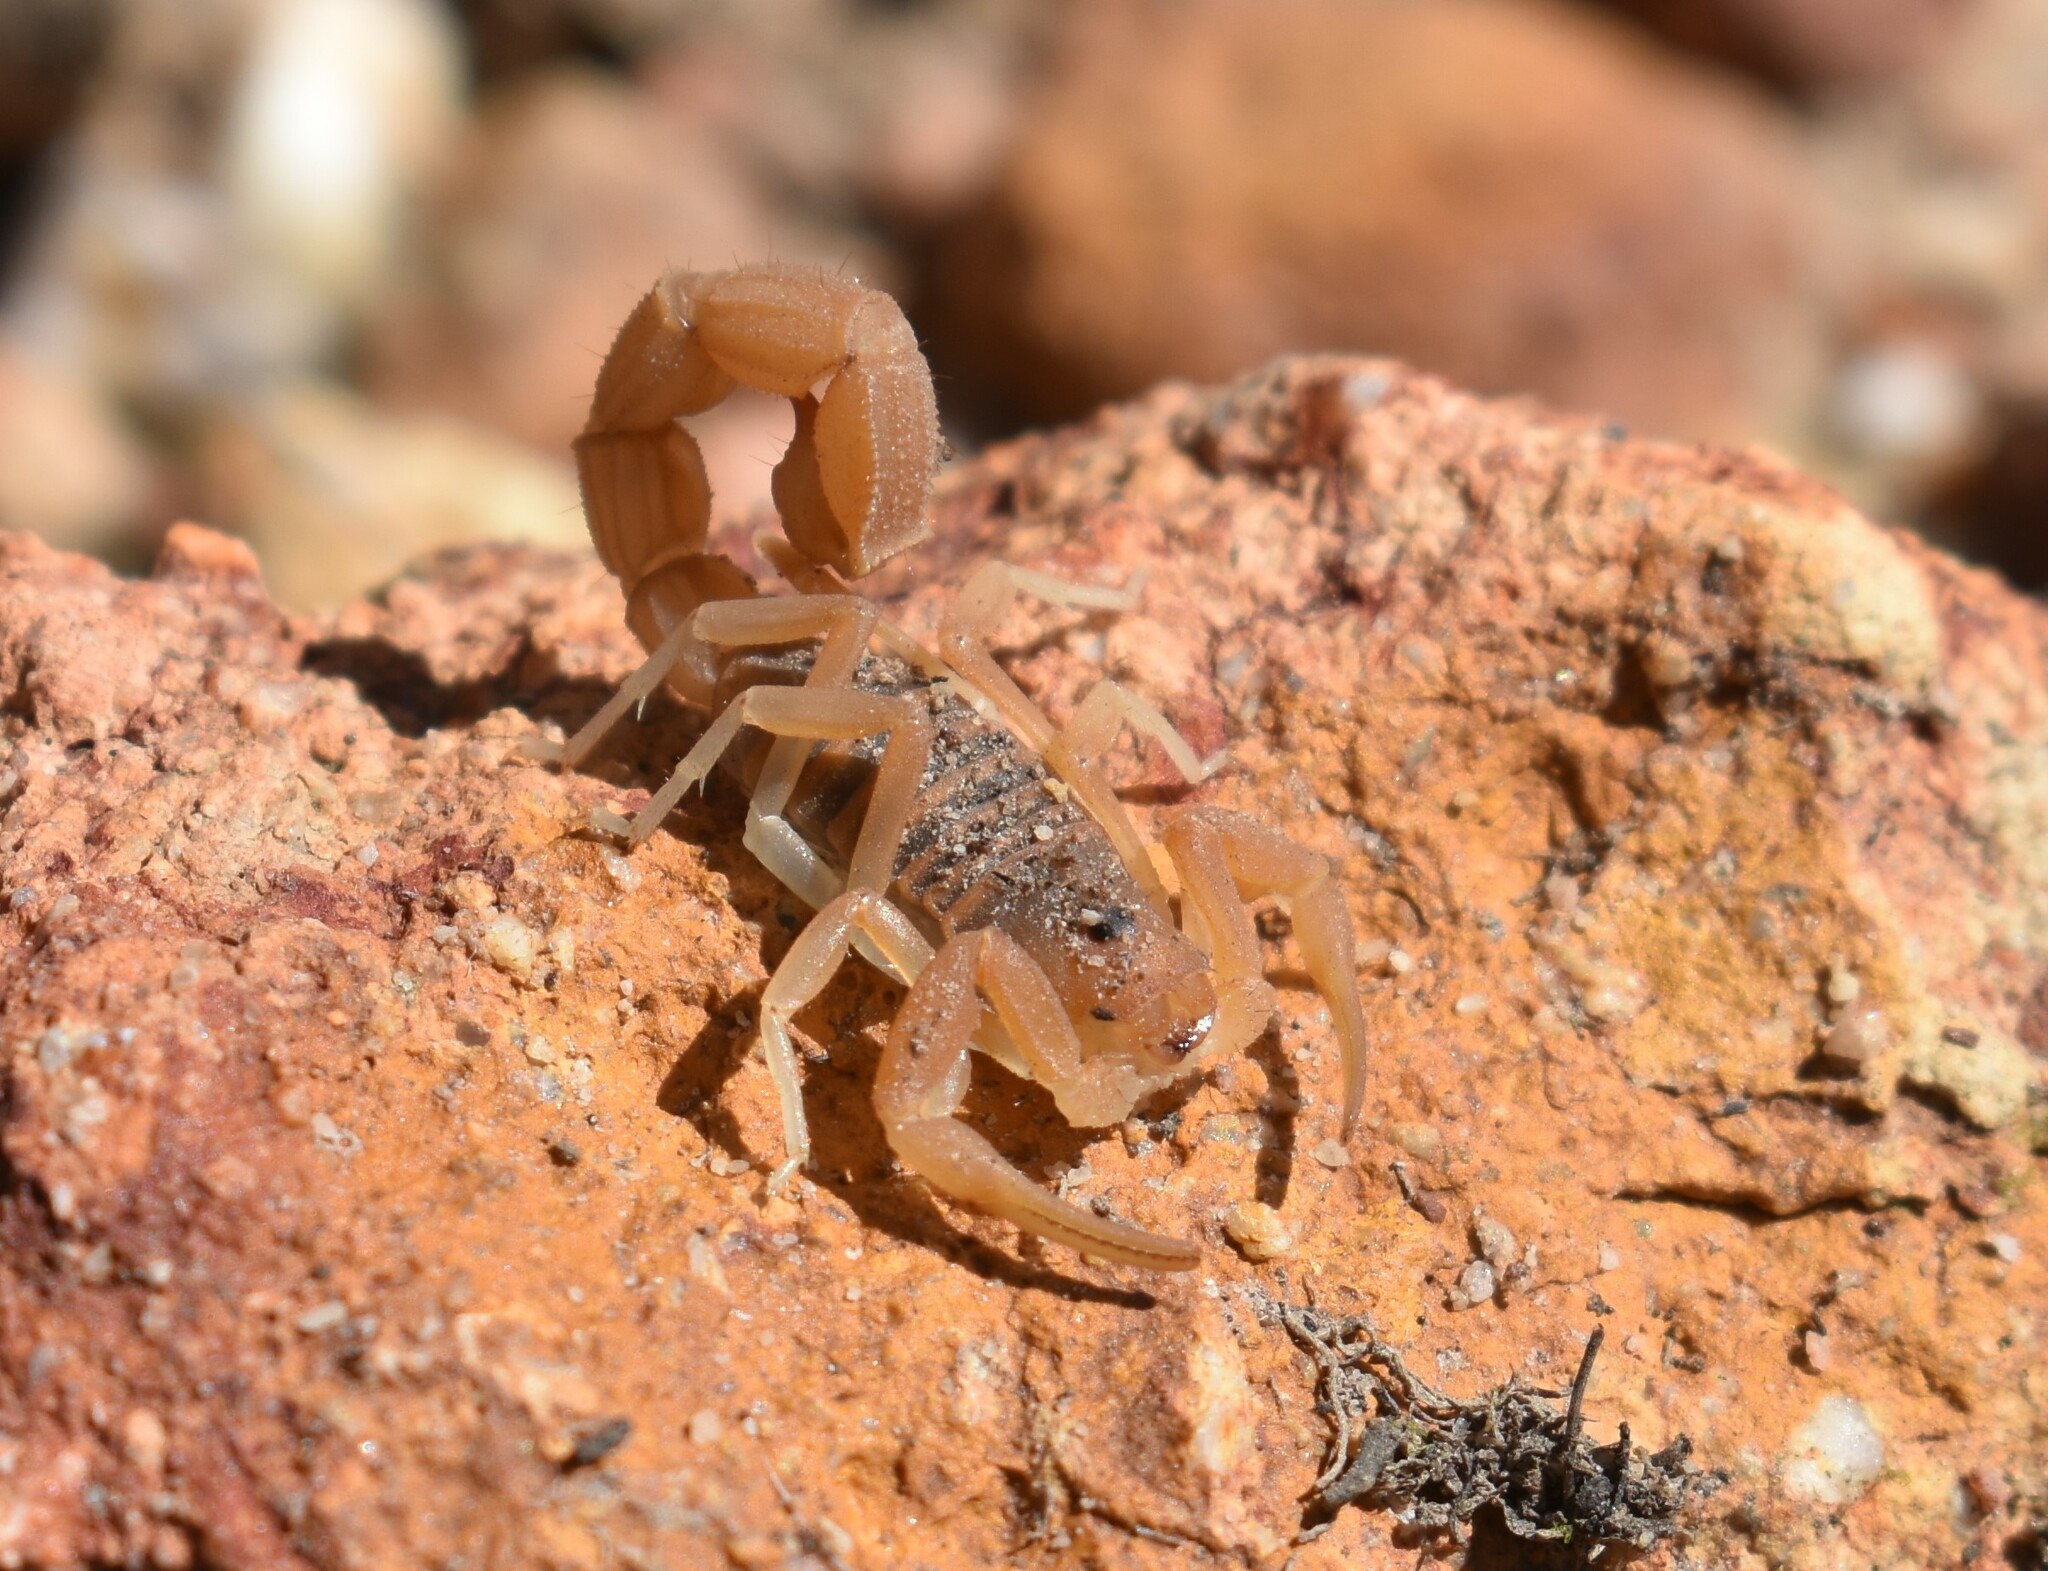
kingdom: Animalia
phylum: Arthropoda
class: Arachnida
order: Scorpiones
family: Buthidae
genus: Parabuthus
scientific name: Parabuthus planicauda
